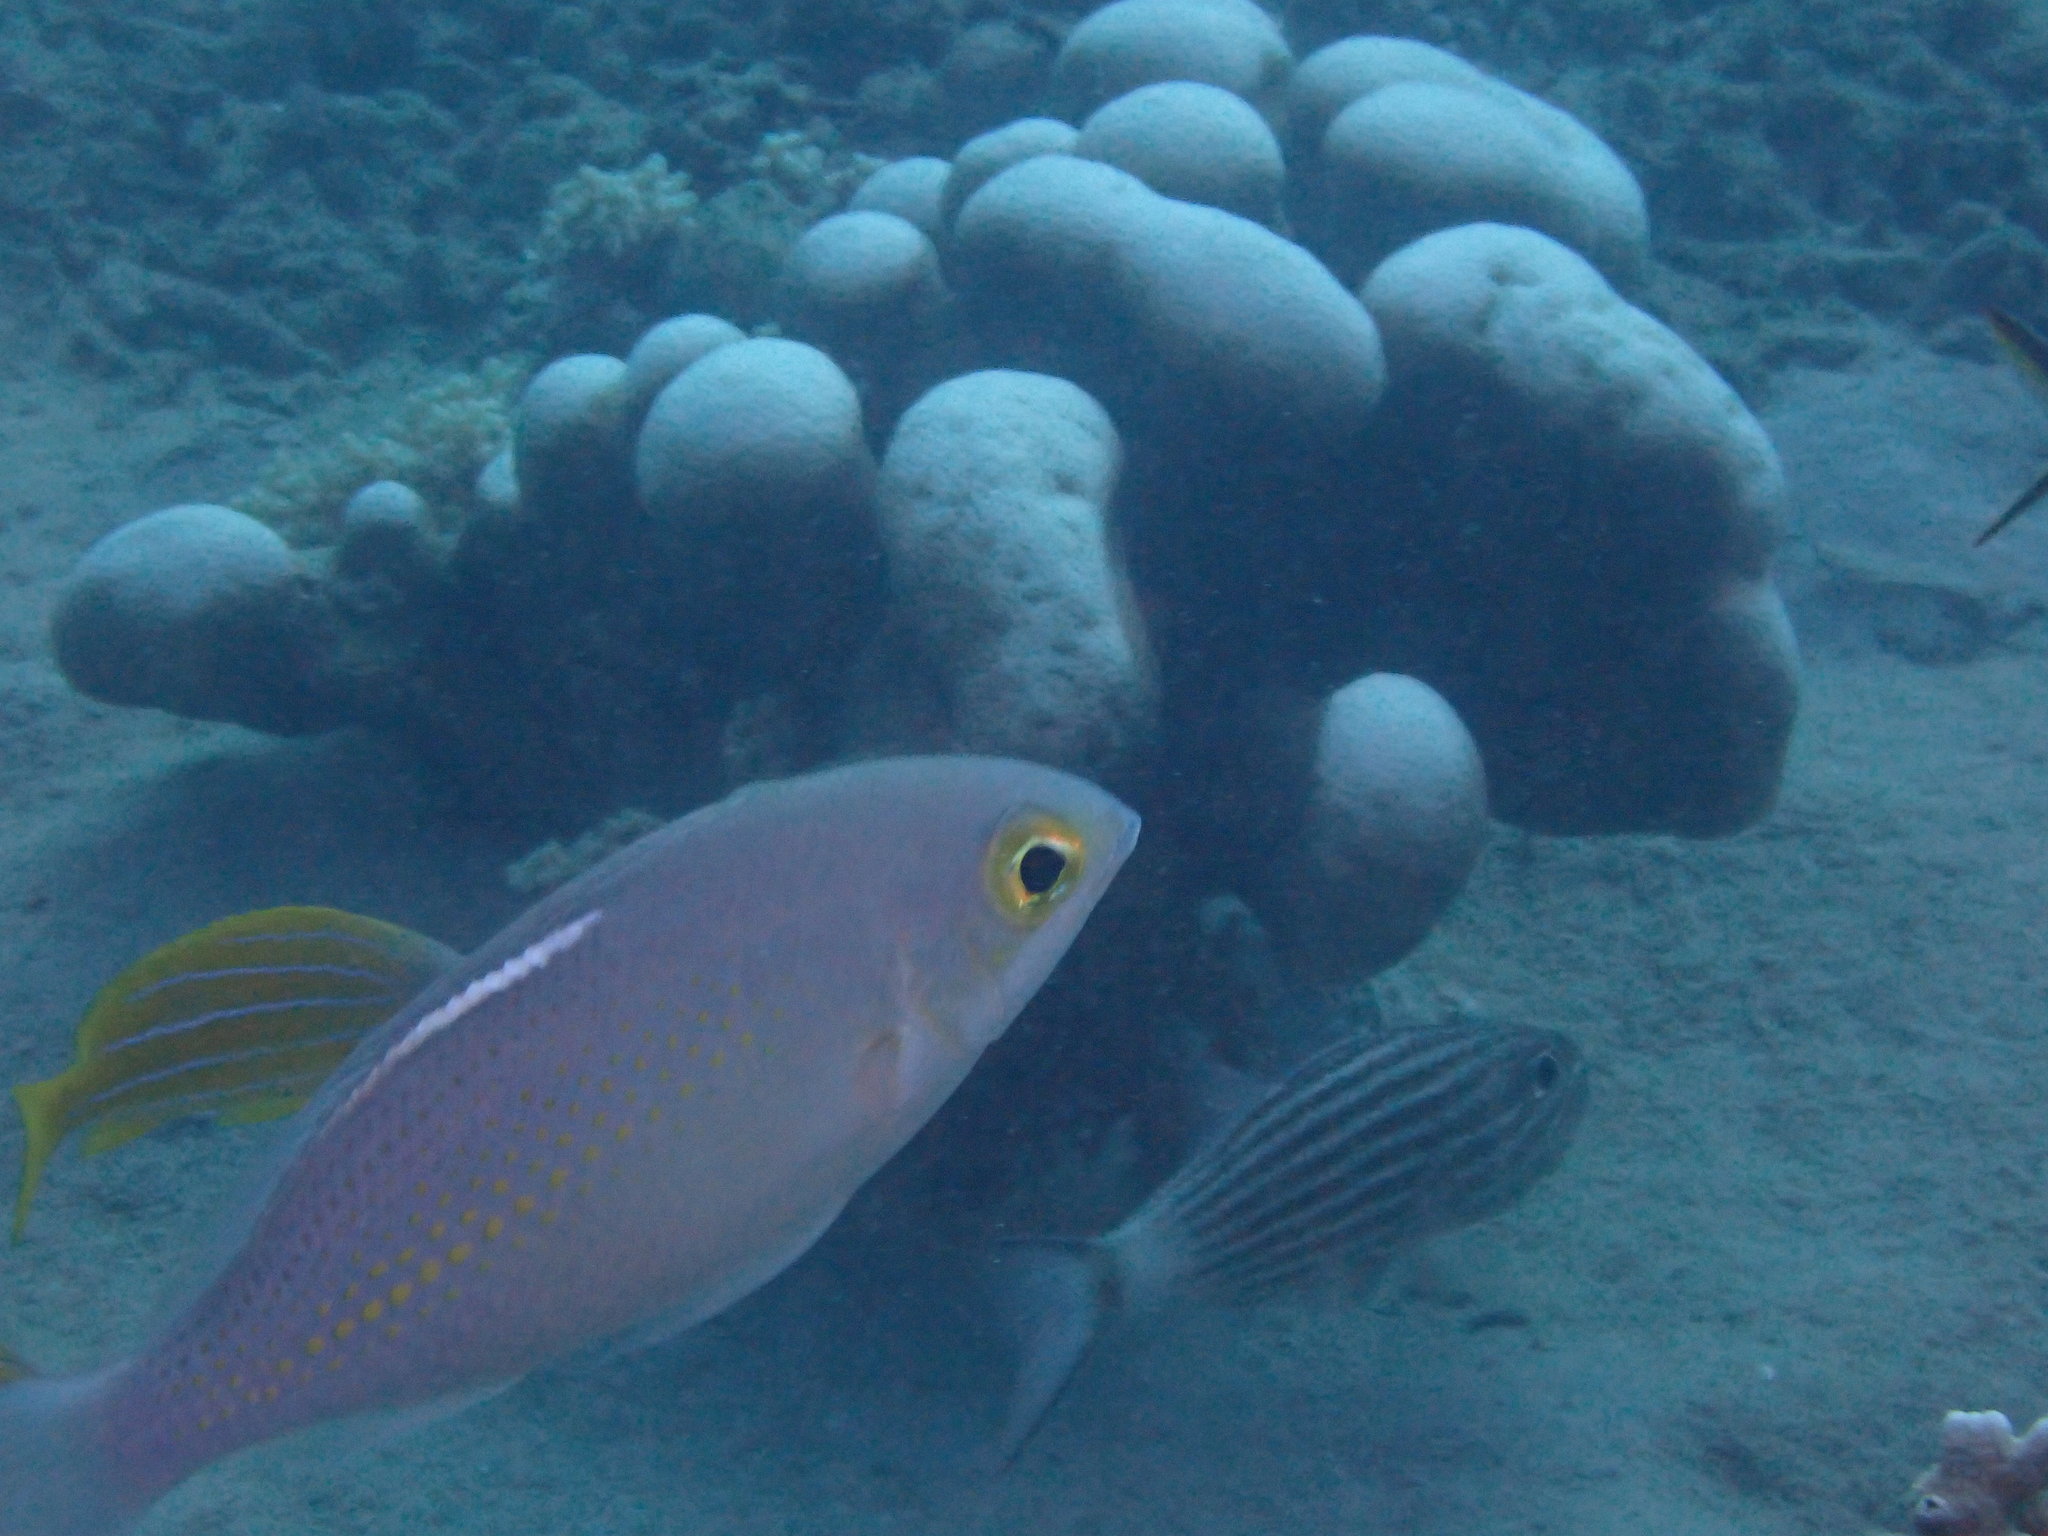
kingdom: Animalia
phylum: Chordata
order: Perciformes
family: Nemipteridae
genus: Scolopsis
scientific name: Scolopsis ciliata
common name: Ciliate spinecheek
